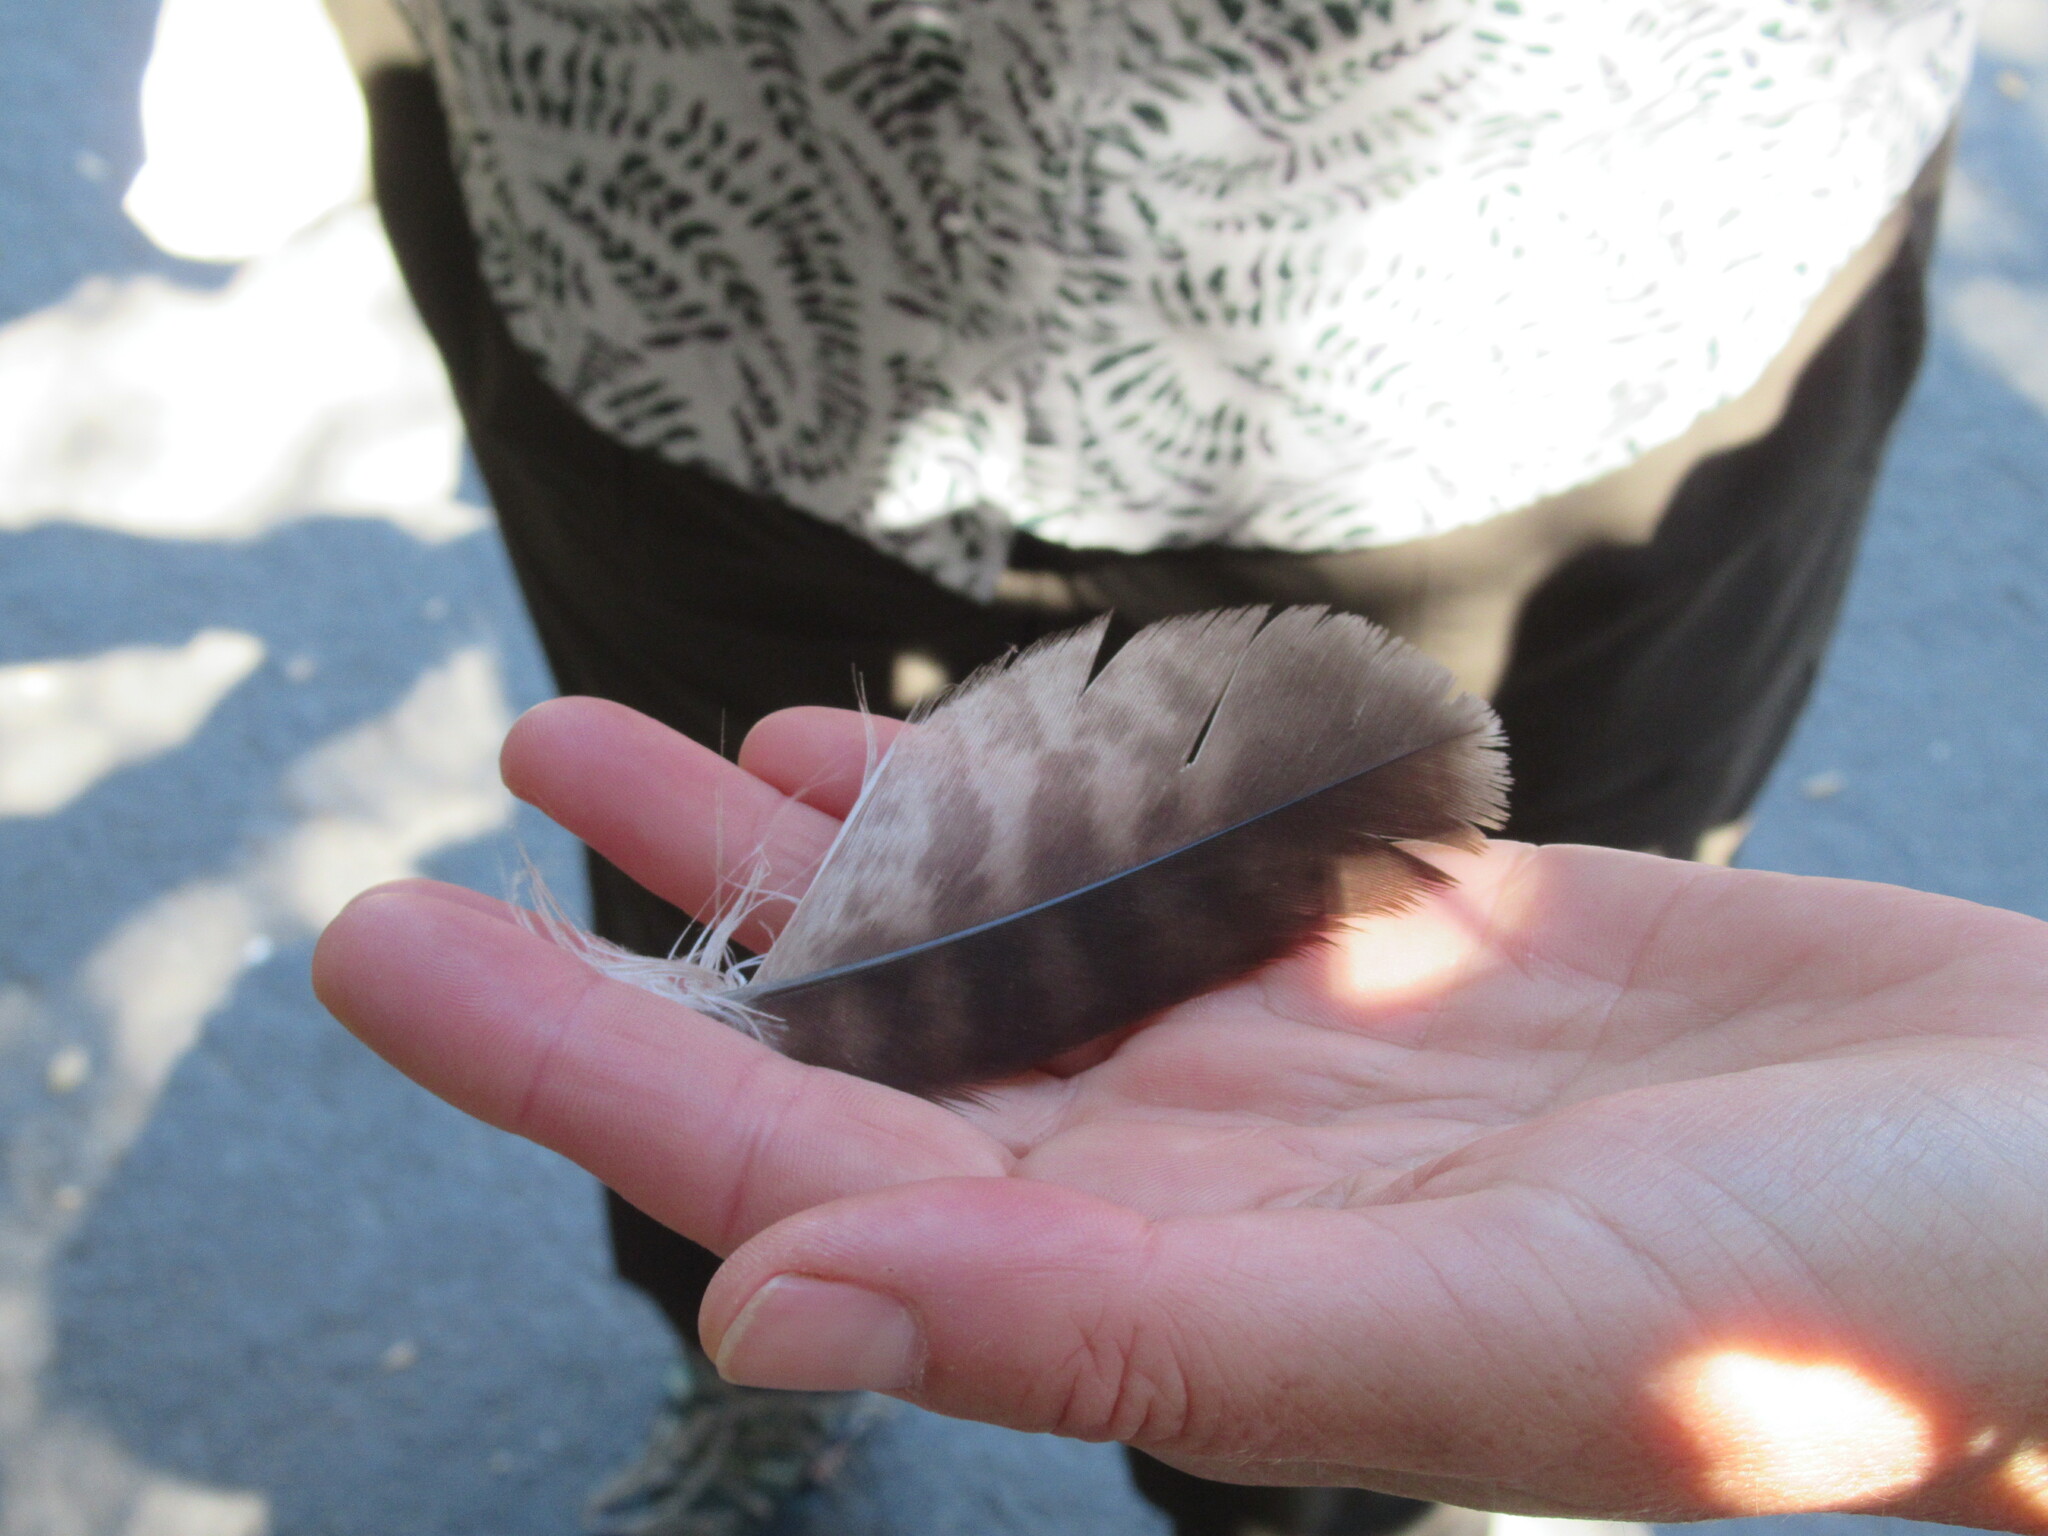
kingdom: Animalia
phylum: Chordata
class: Aves
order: Accipitriformes
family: Accipitridae
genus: Buteo
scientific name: Buteo jamaicensis
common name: Red-tailed hawk
